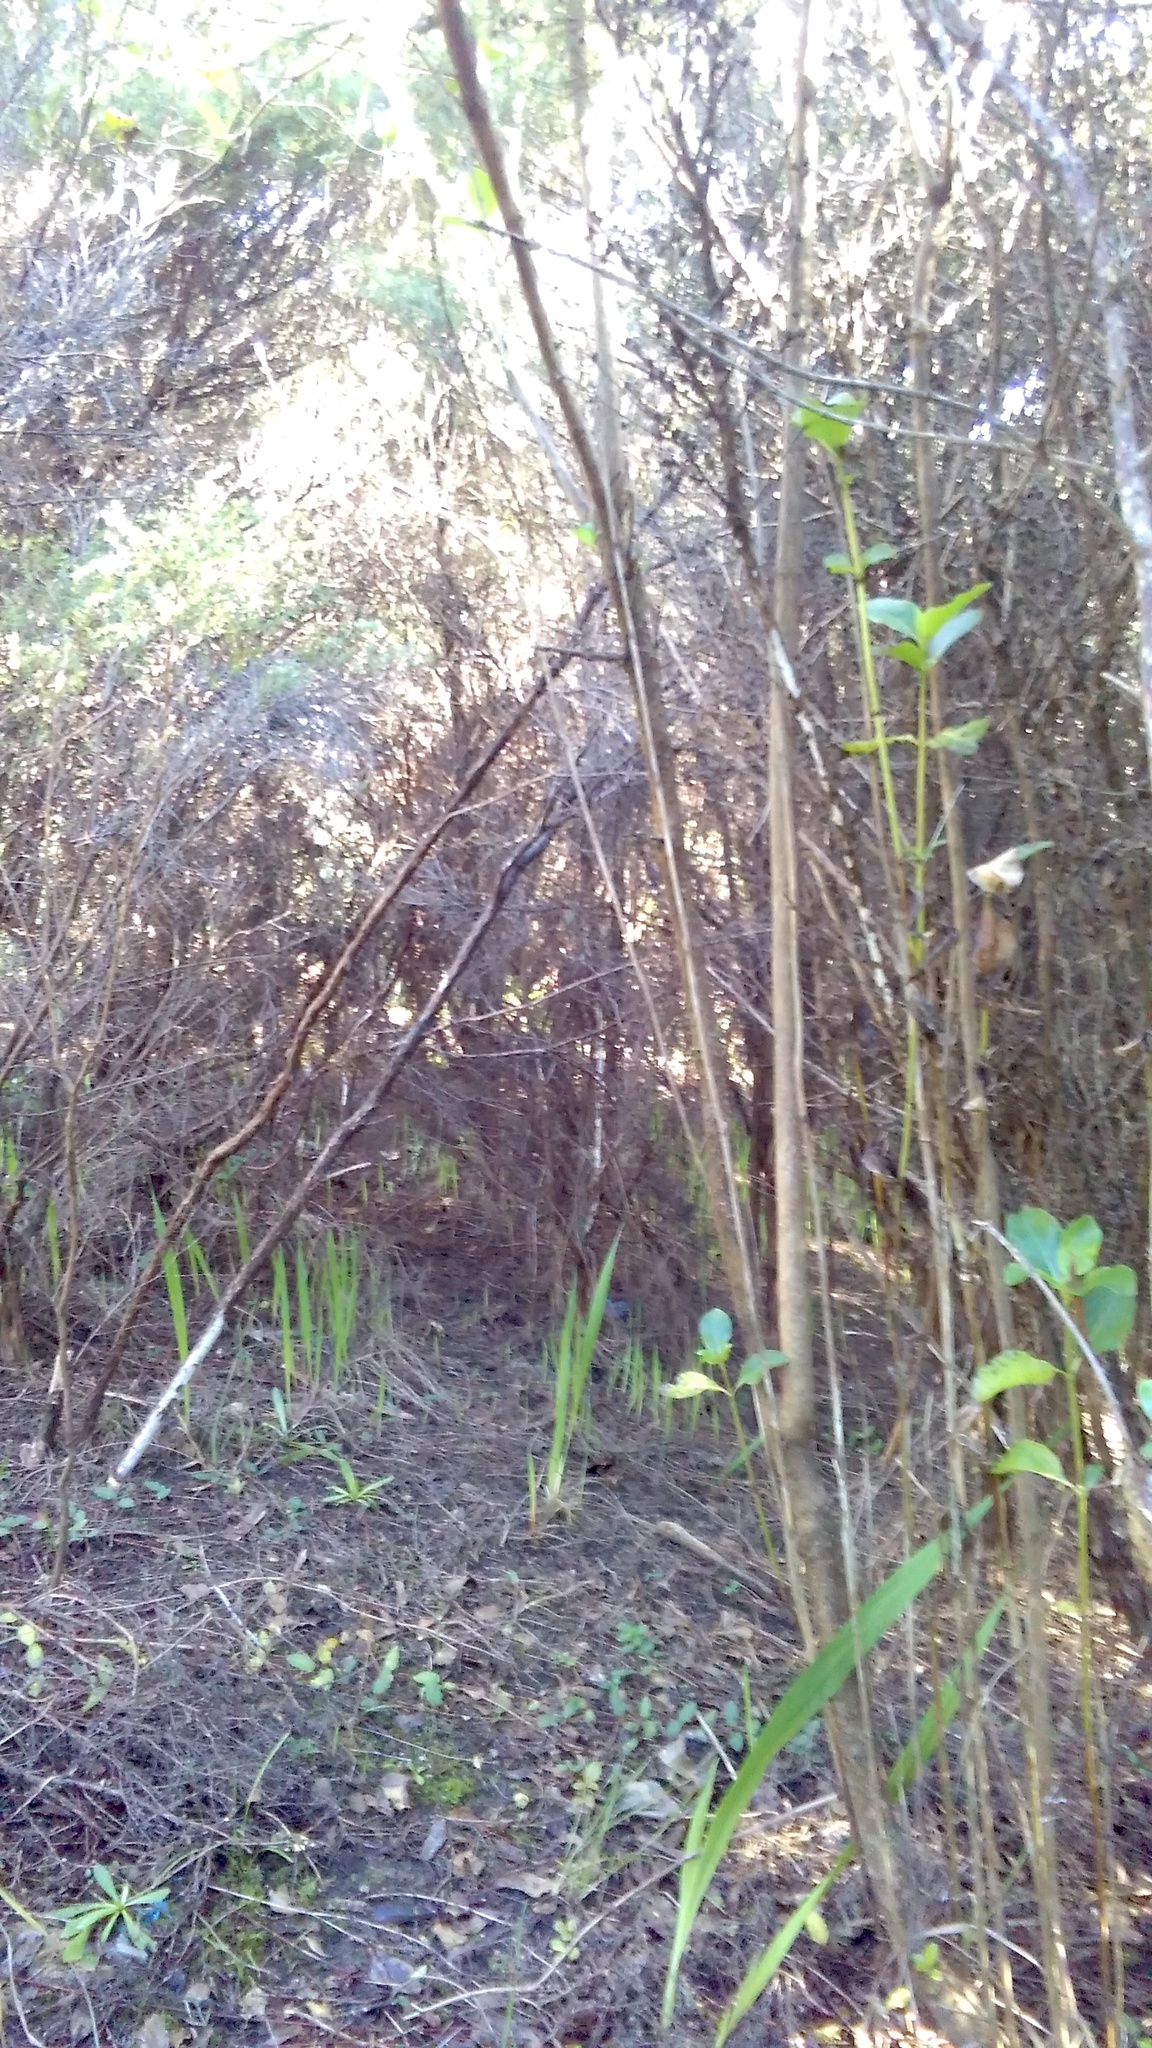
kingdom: Plantae
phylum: Tracheophyta
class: Magnoliopsida
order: Gentianales
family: Rubiaceae
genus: Coprosma
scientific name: Coprosma robusta
